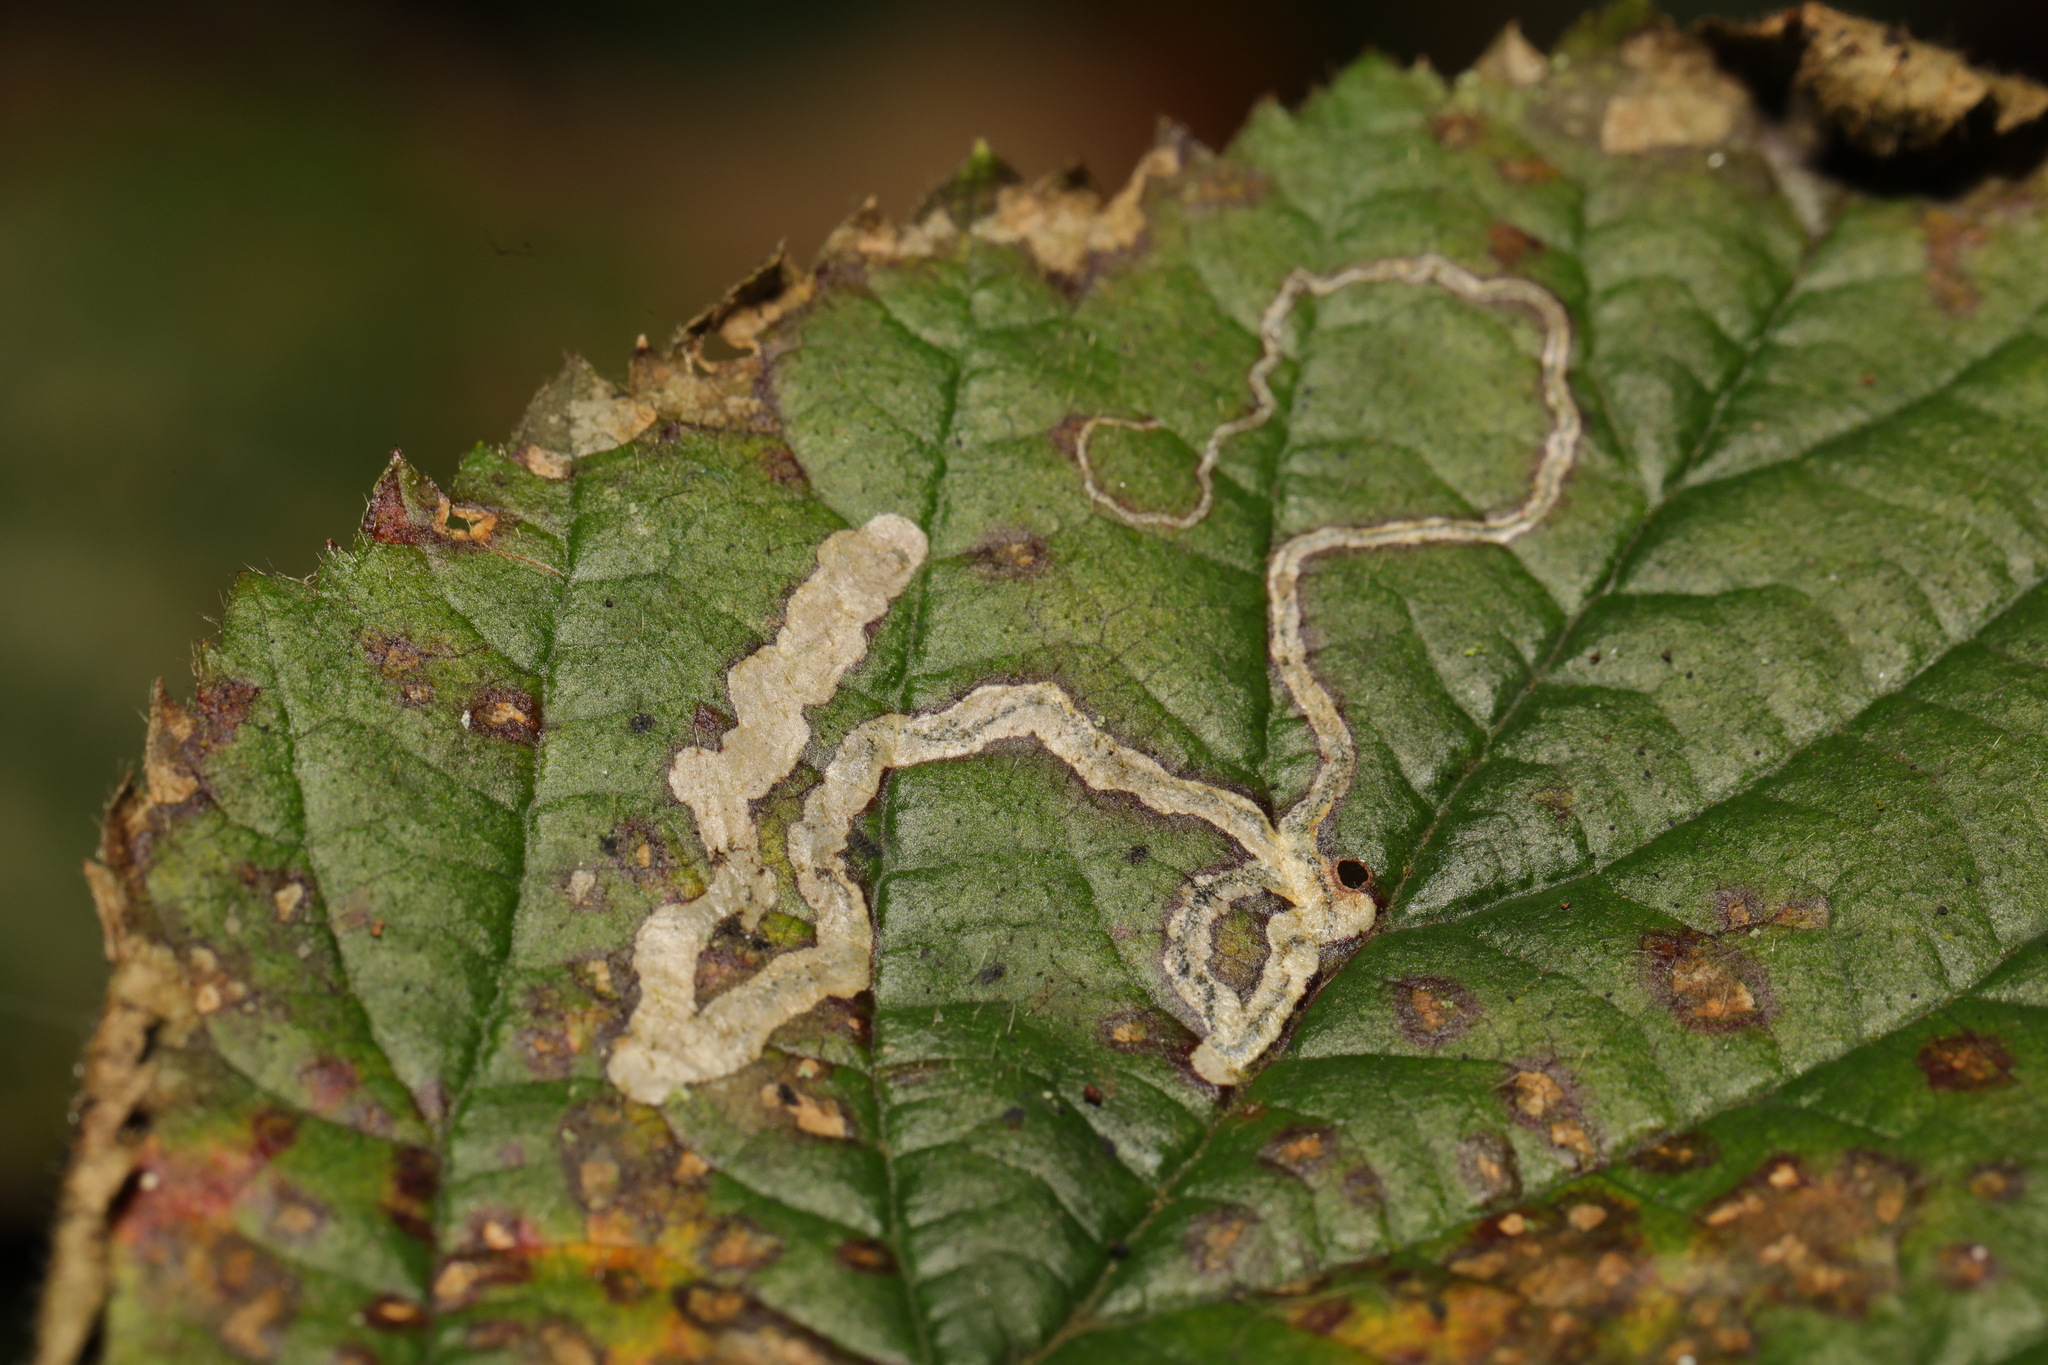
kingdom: Animalia
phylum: Arthropoda
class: Insecta
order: Lepidoptera
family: Nepticulidae
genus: Stigmella
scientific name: Stigmella aurella
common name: Golden pigmy
